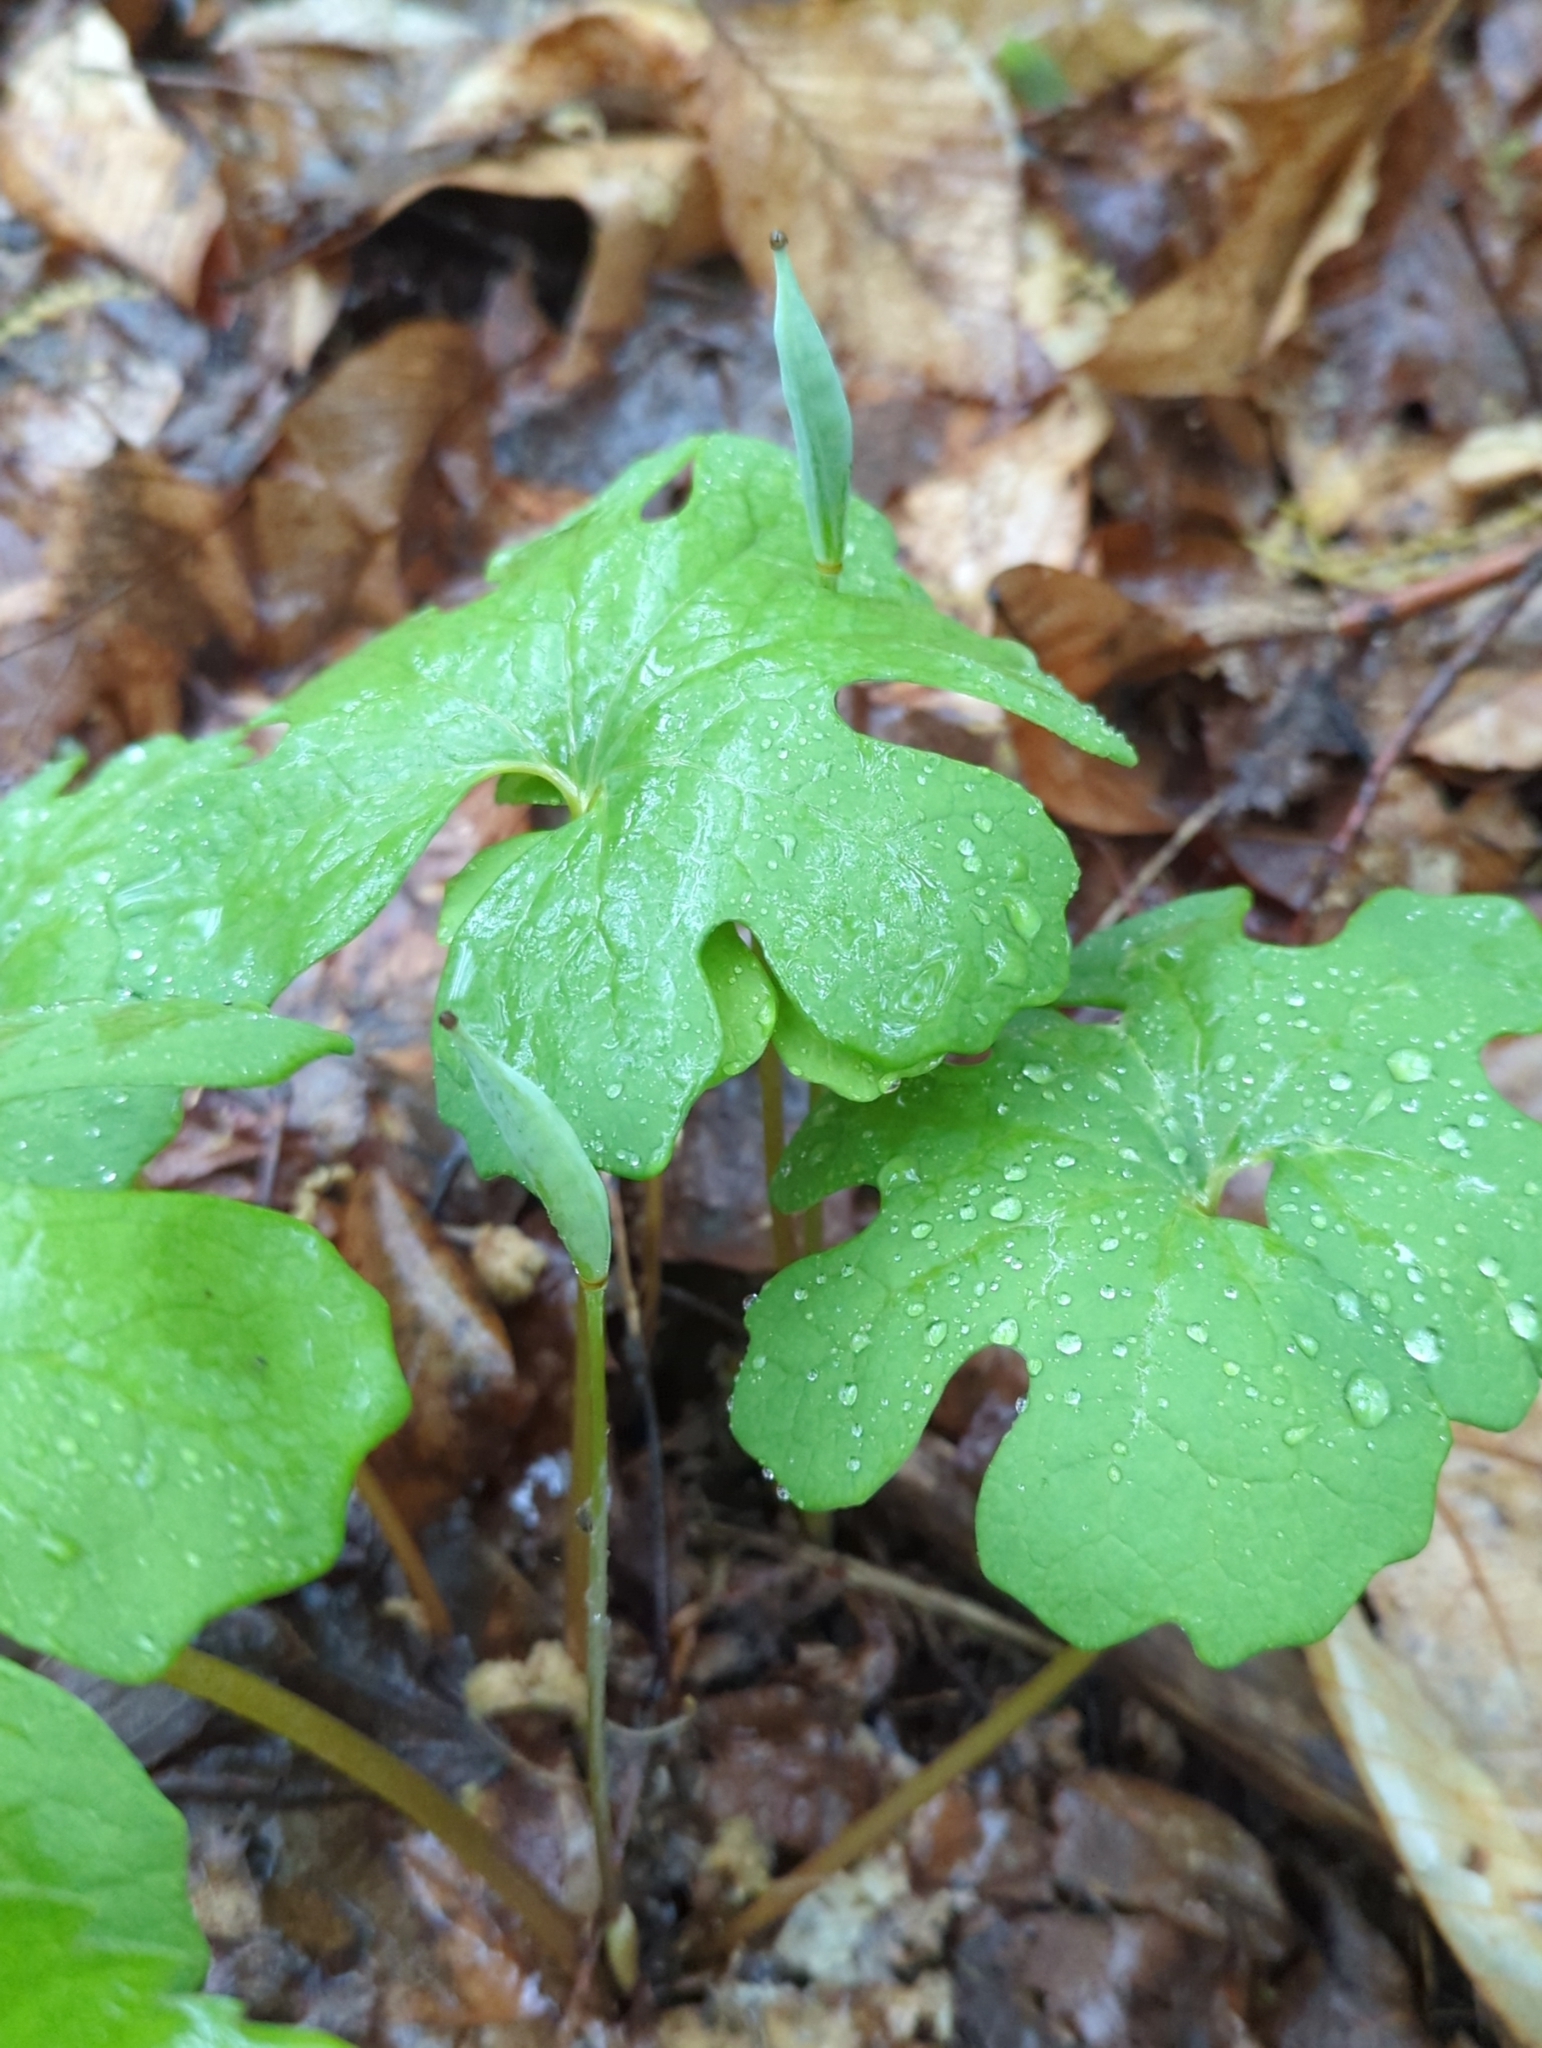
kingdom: Plantae
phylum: Tracheophyta
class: Magnoliopsida
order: Ranunculales
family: Papaveraceae
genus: Sanguinaria
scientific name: Sanguinaria canadensis
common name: Bloodroot
